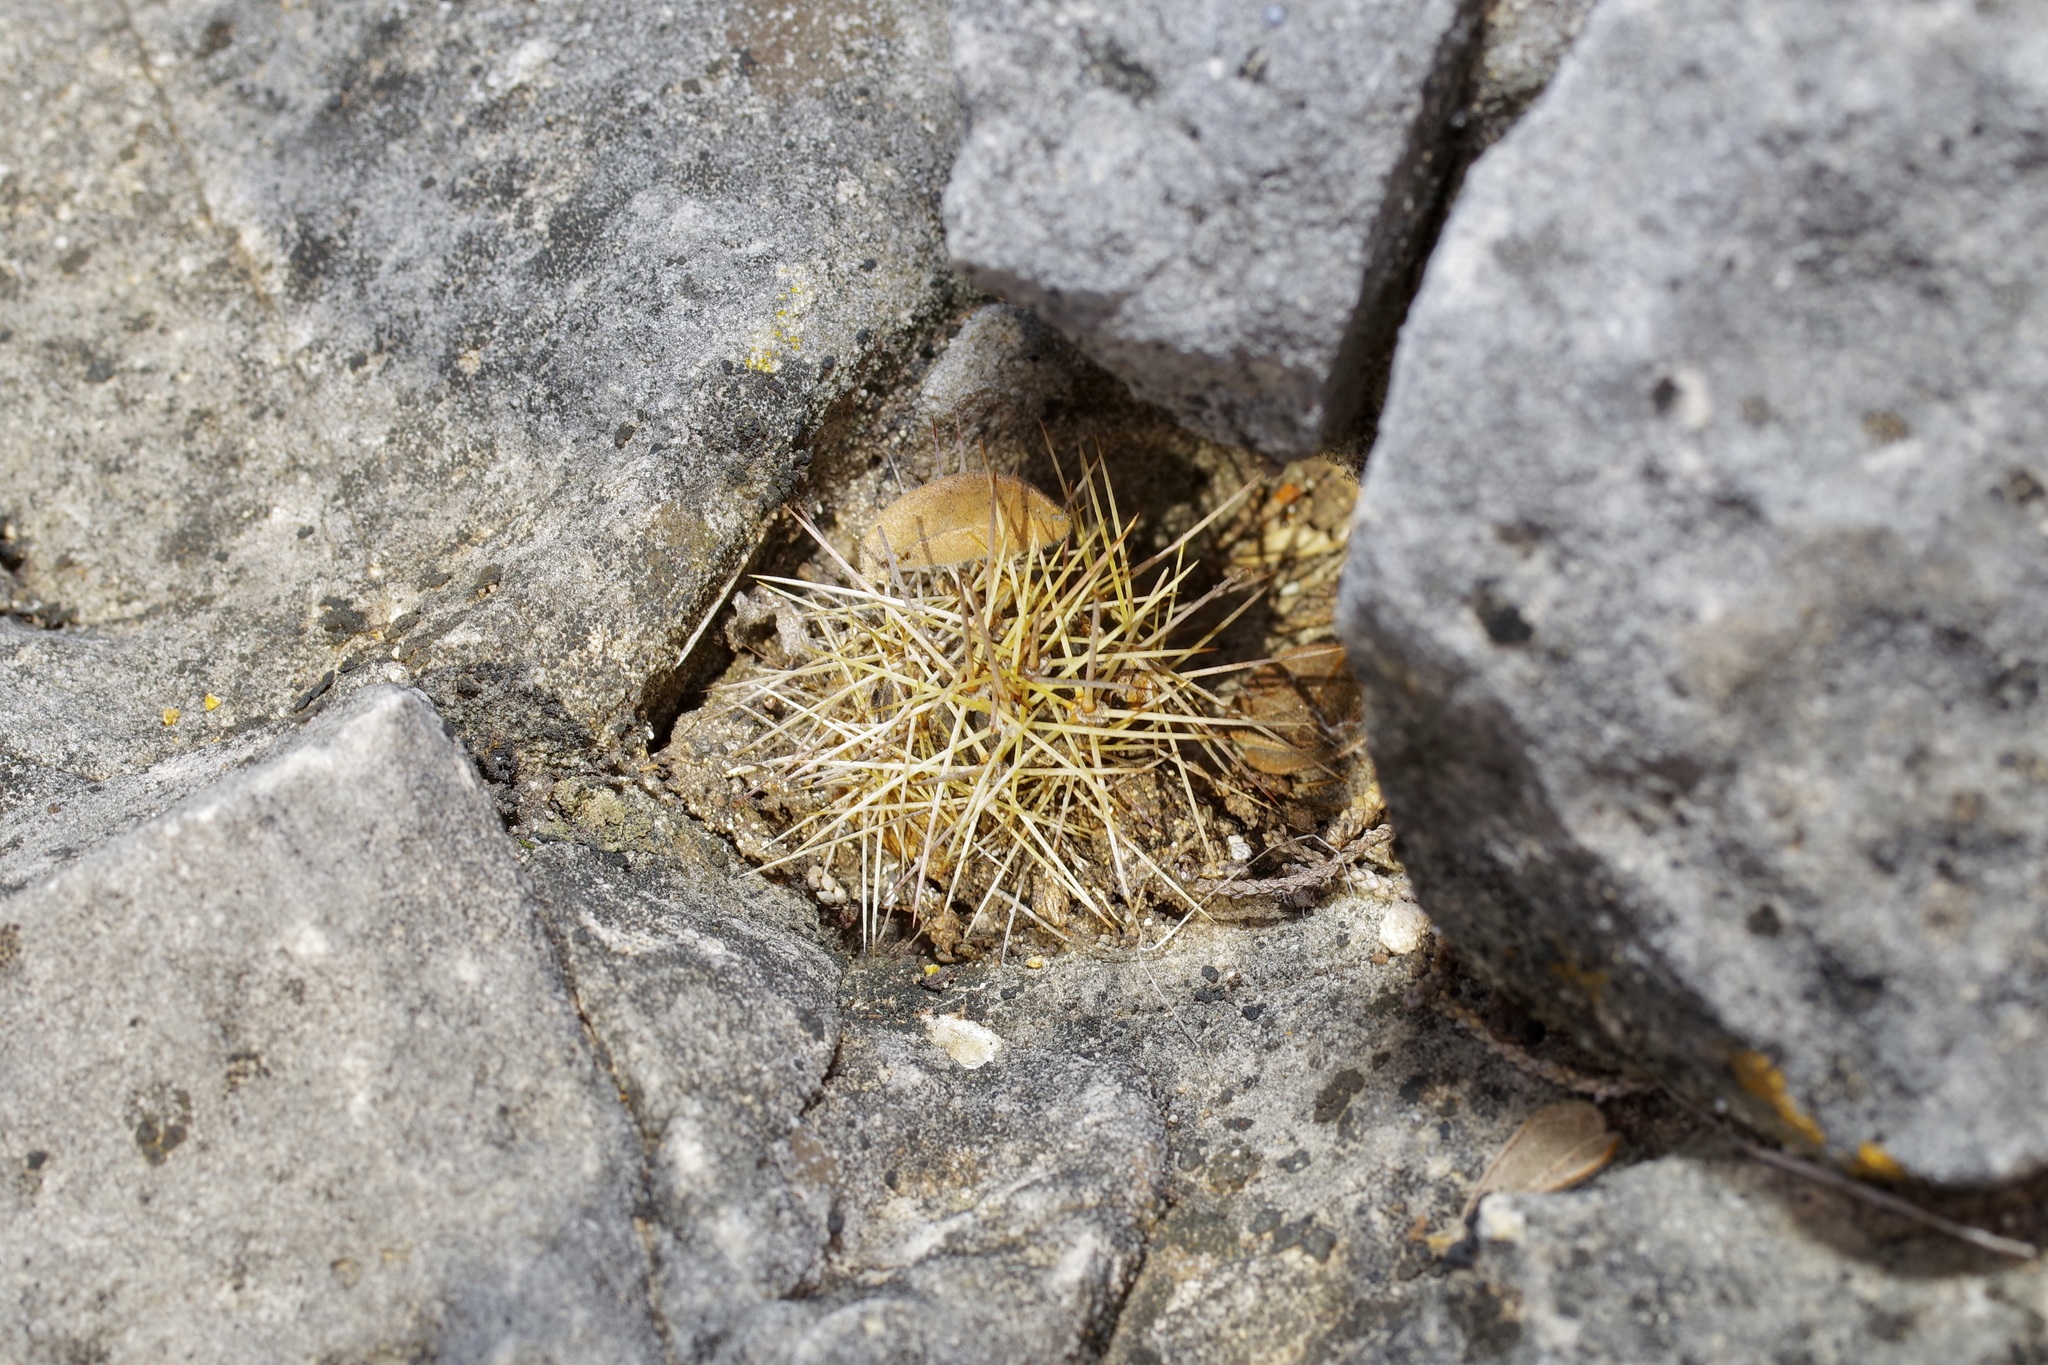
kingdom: Plantae
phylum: Tracheophyta
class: Magnoliopsida
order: Caryophyllales
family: Cactaceae
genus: Echinocereus
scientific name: Echinocereus coccineus
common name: Scarlet hedgehog cactus
